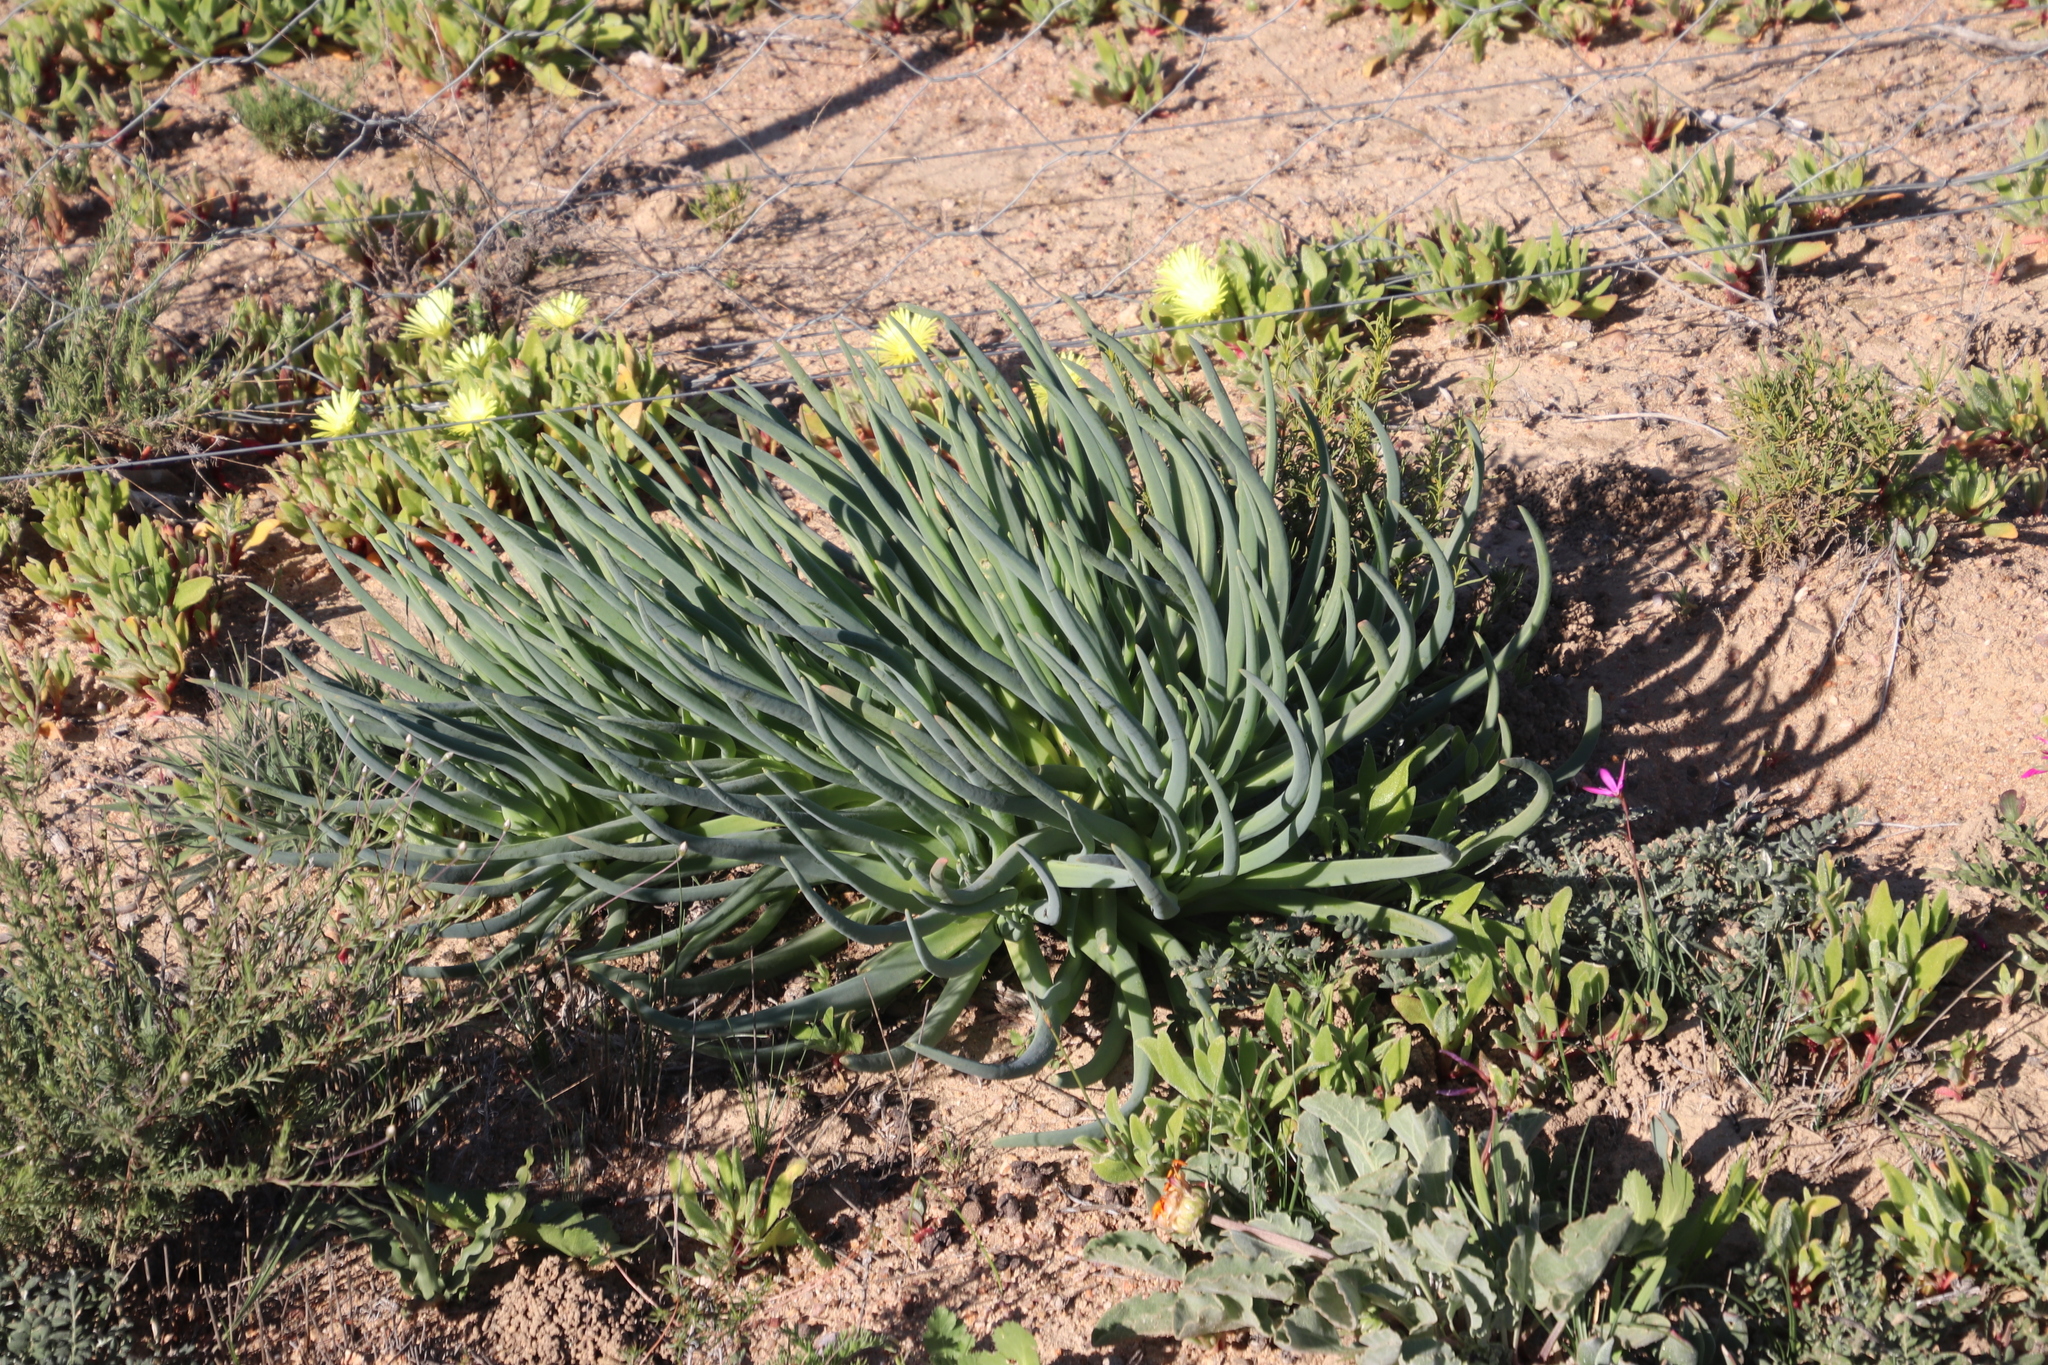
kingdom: Plantae
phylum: Tracheophyta
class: Magnoliopsida
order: Caryophyllales
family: Aizoaceae
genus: Conicosia
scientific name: Conicosia pugioniformis
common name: Narrow-leaved iceplant
